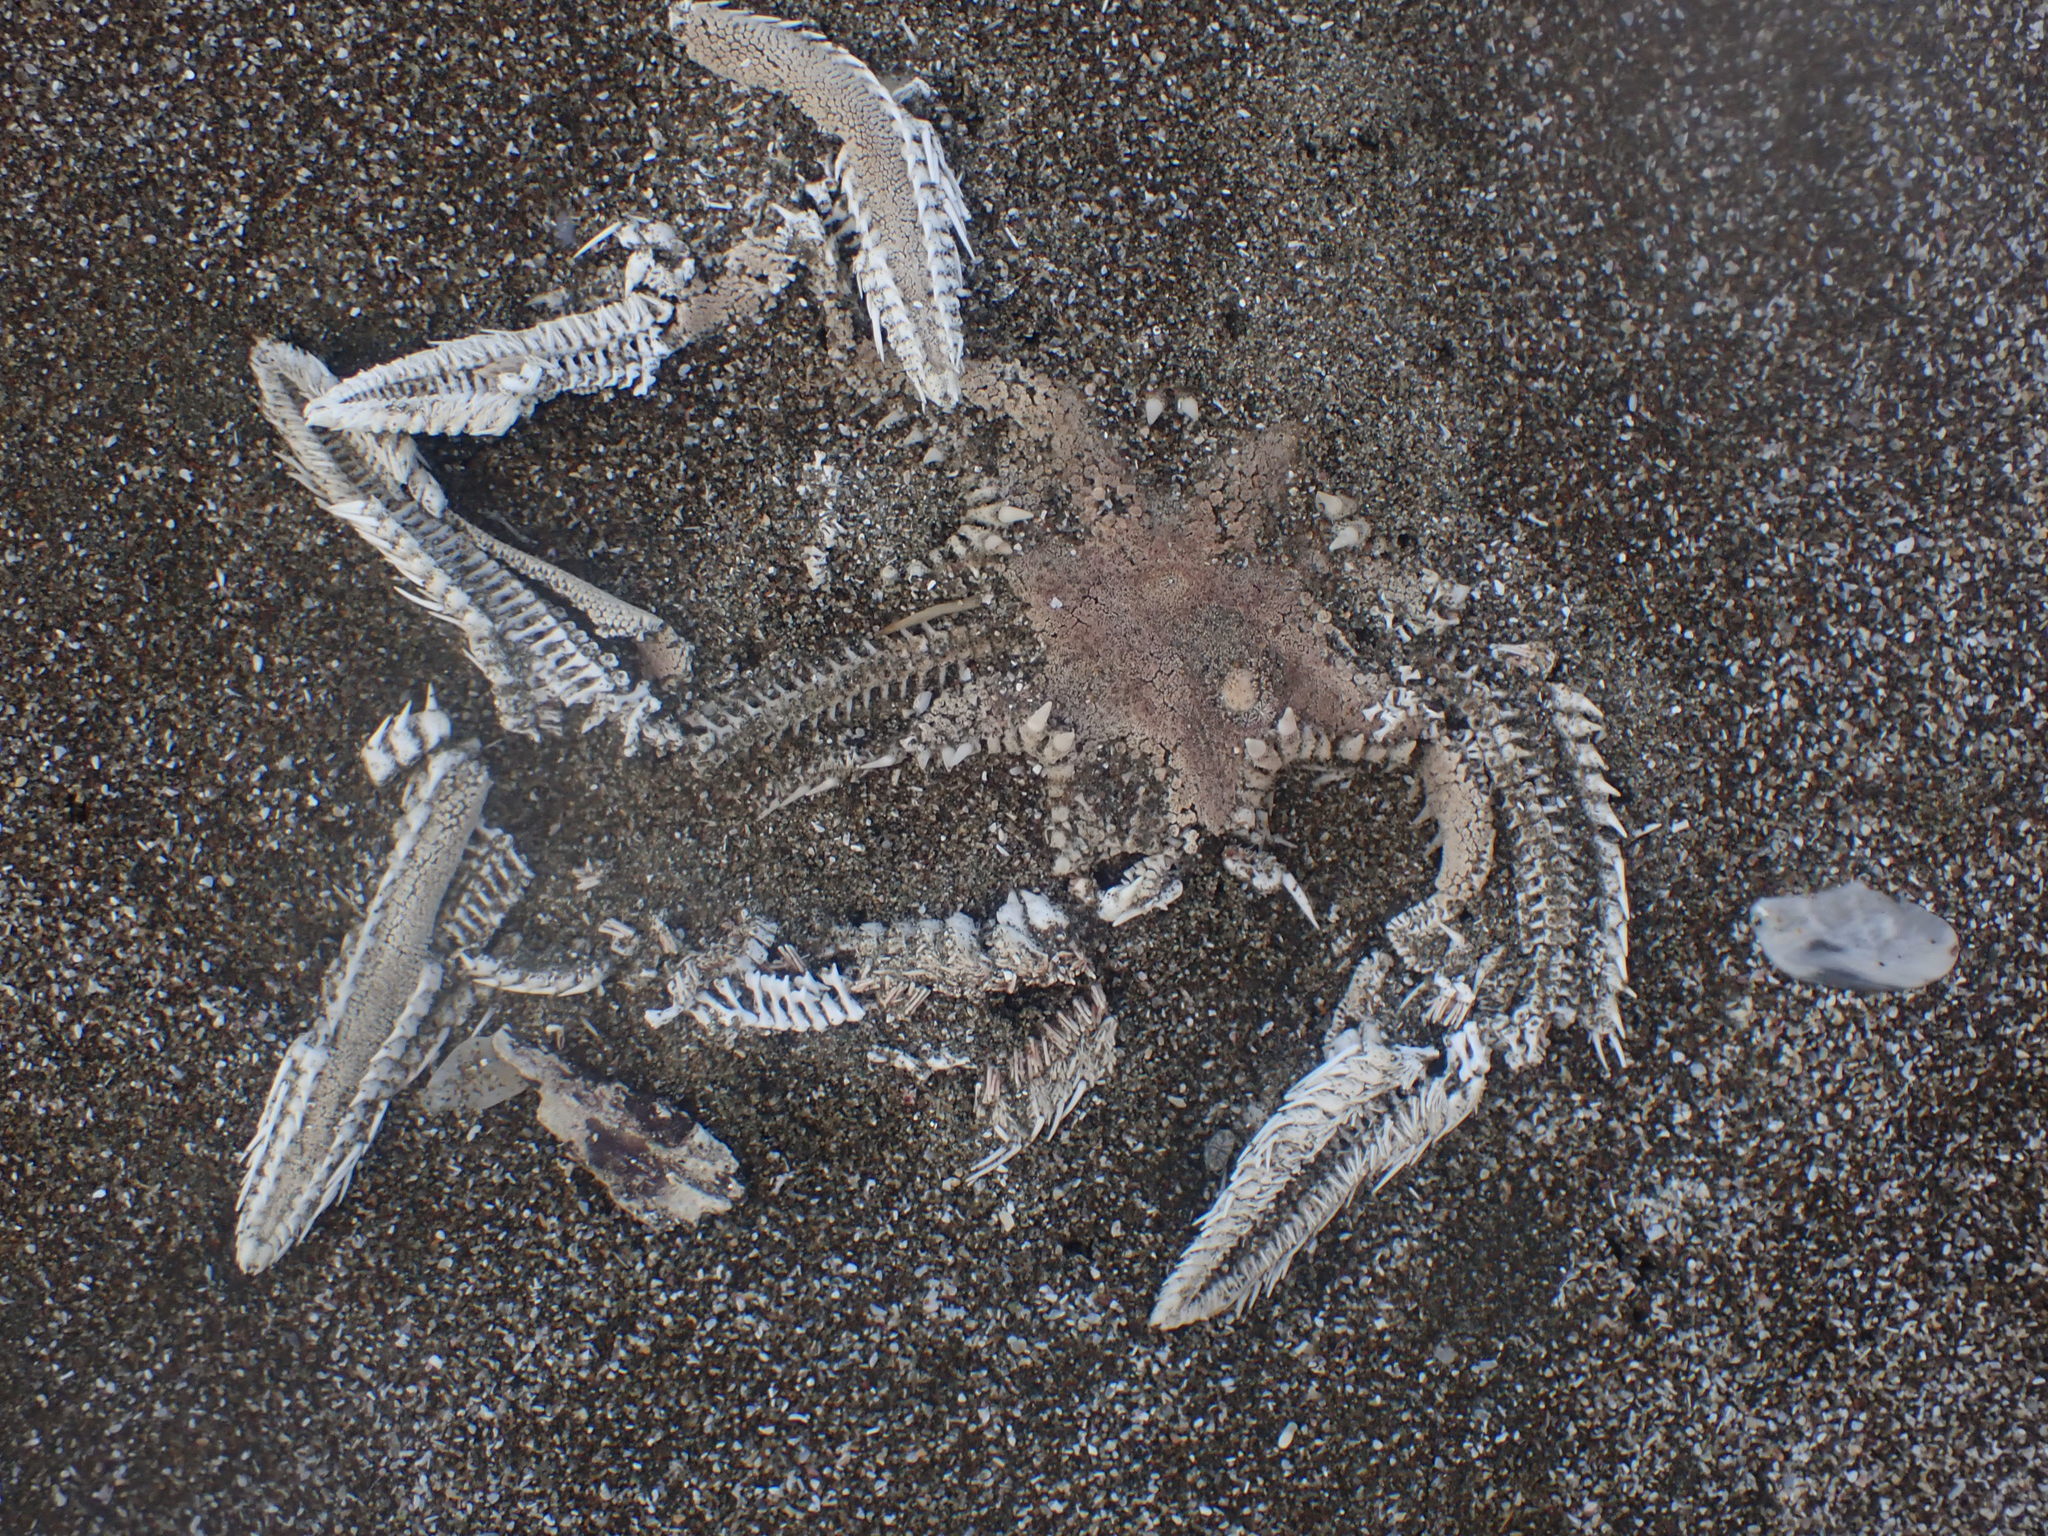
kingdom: Animalia
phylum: Echinodermata
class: Asteroidea
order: Paxillosida
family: Astropectinidae
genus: Astropecten
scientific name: Astropecten polyacanthus
